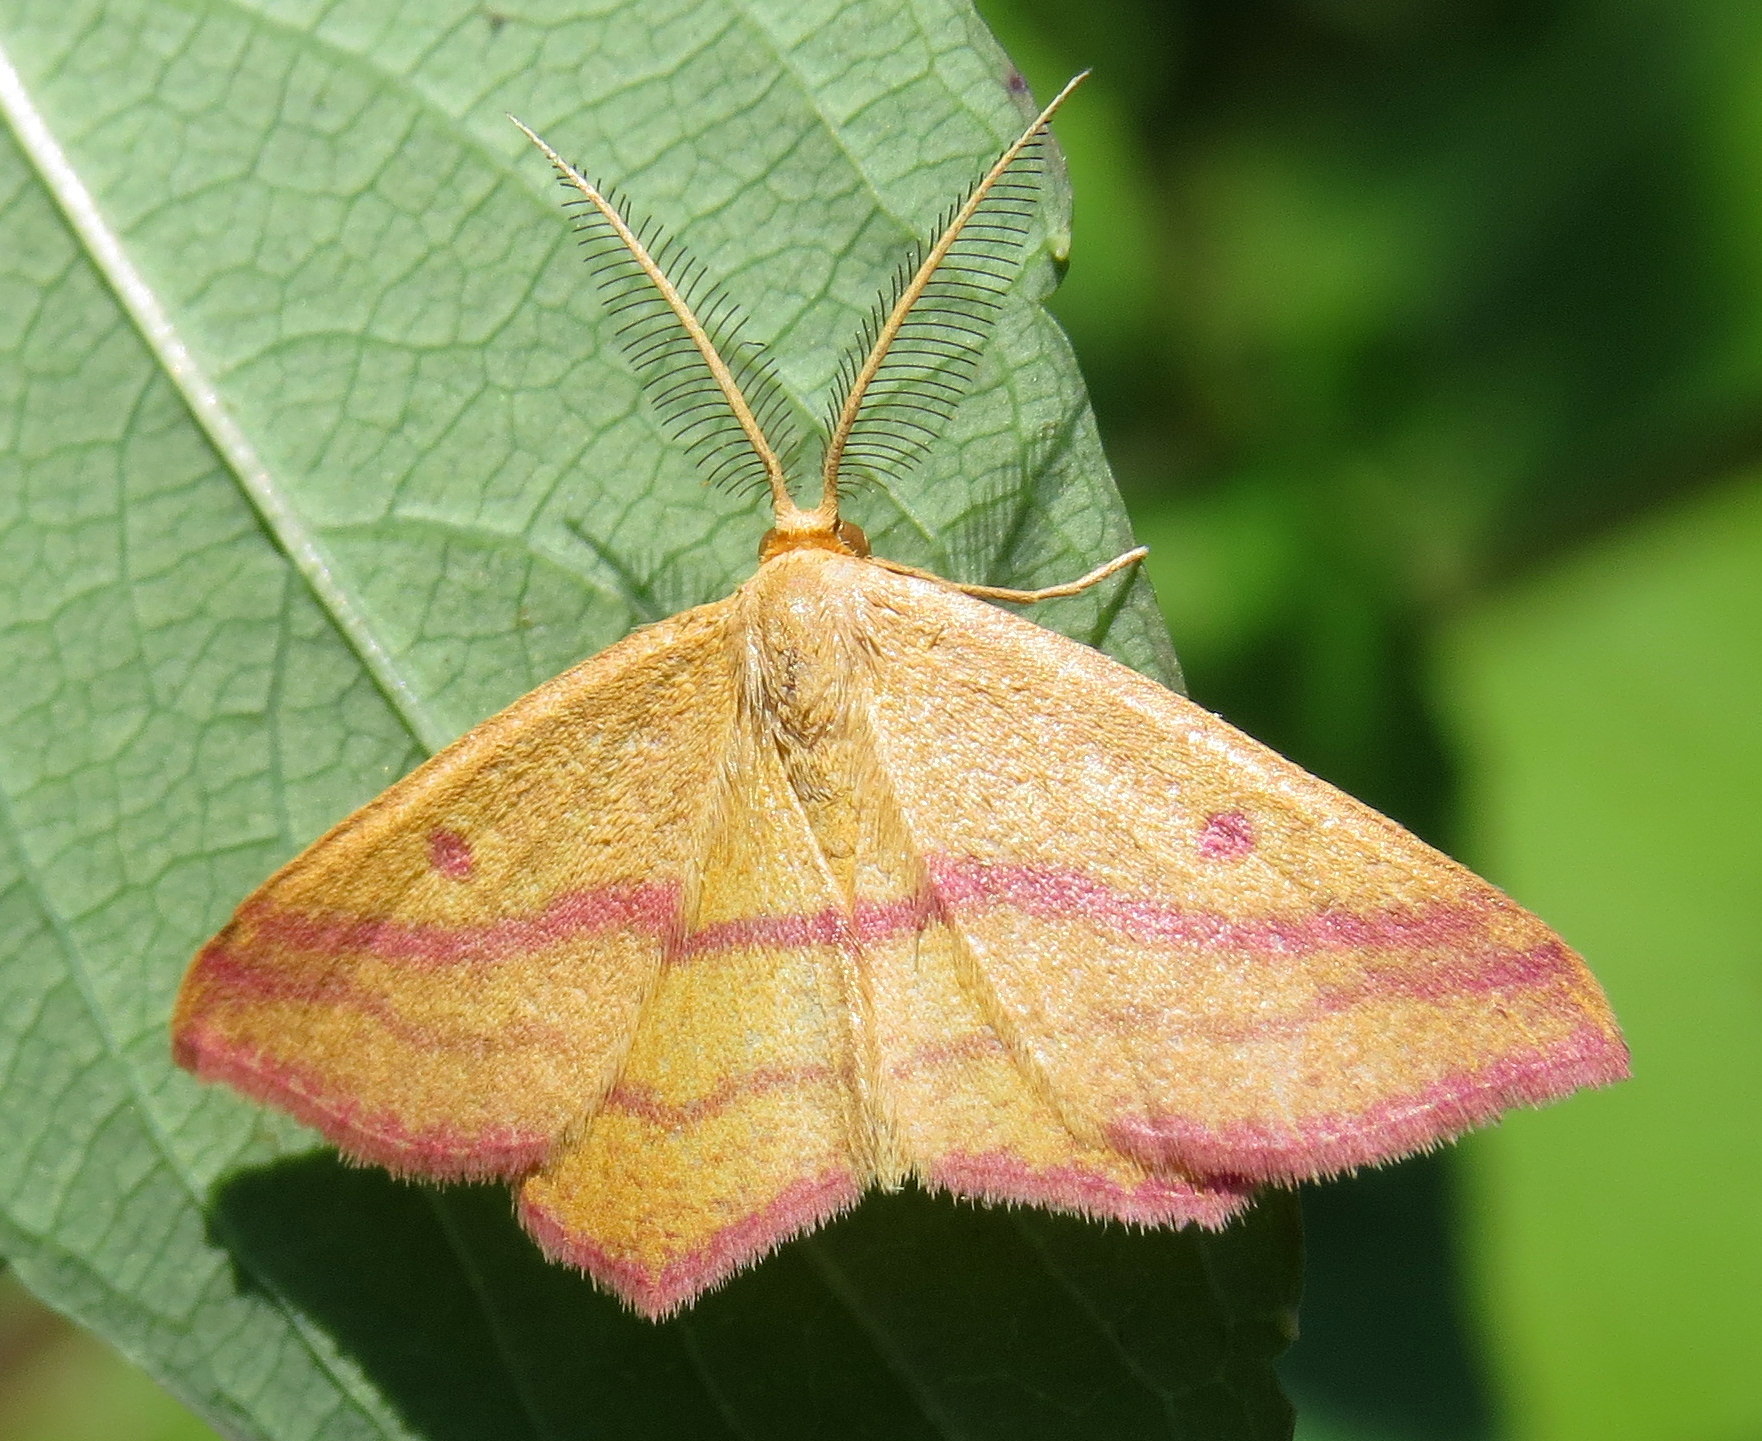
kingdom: Animalia
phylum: Arthropoda
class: Insecta
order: Lepidoptera
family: Geometridae
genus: Haematopis
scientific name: Haematopis grataria
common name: Chickweed geometer
